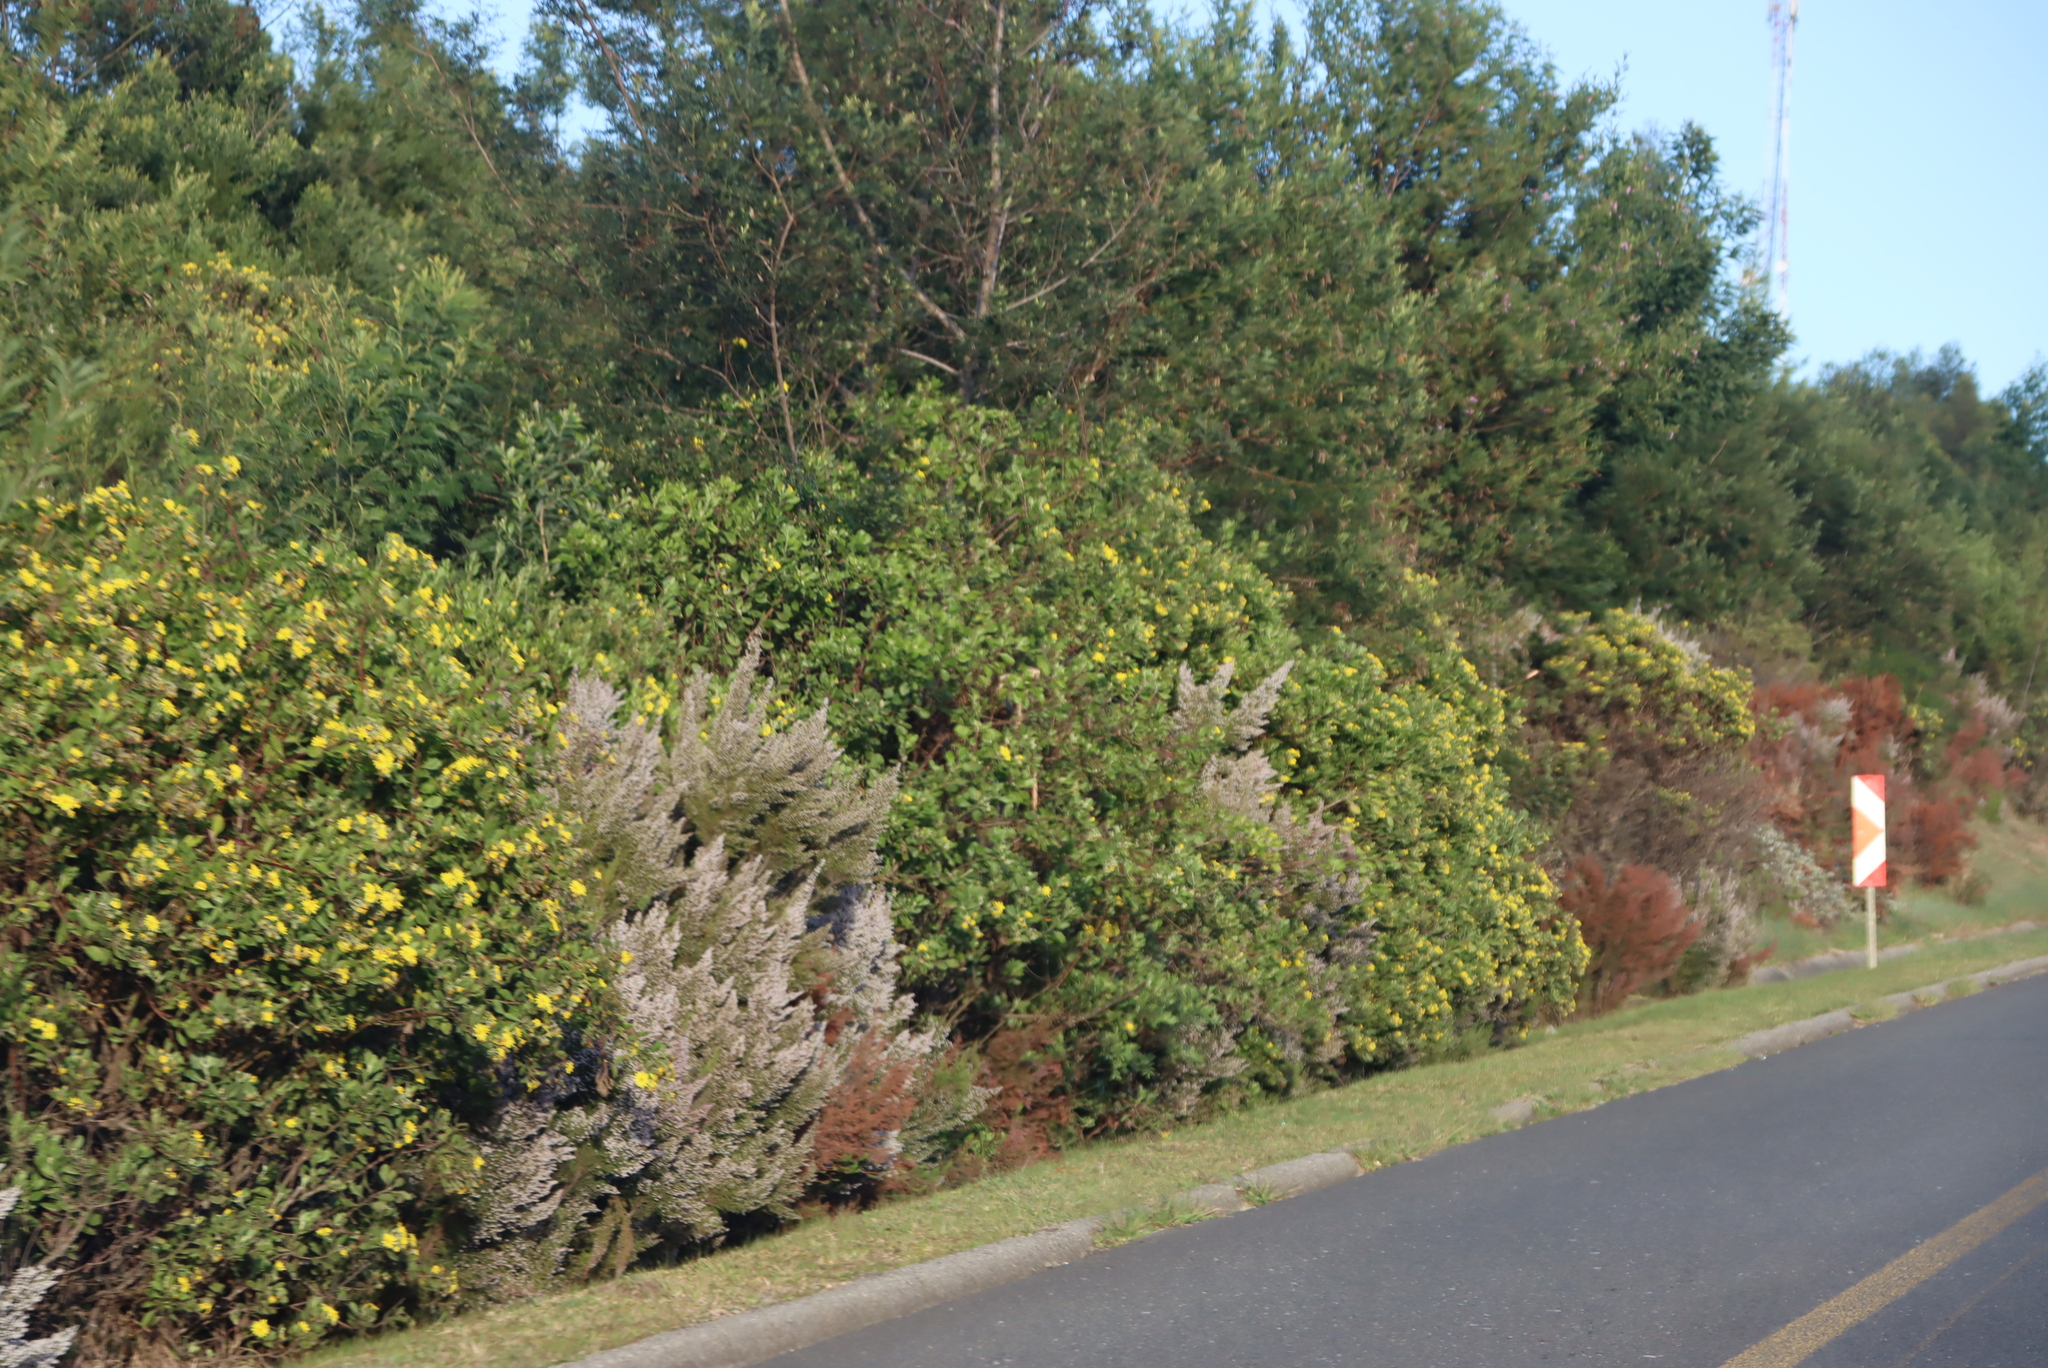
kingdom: Plantae
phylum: Tracheophyta
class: Magnoliopsida
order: Asterales
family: Asteraceae
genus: Osteospermum
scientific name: Osteospermum moniliferum
